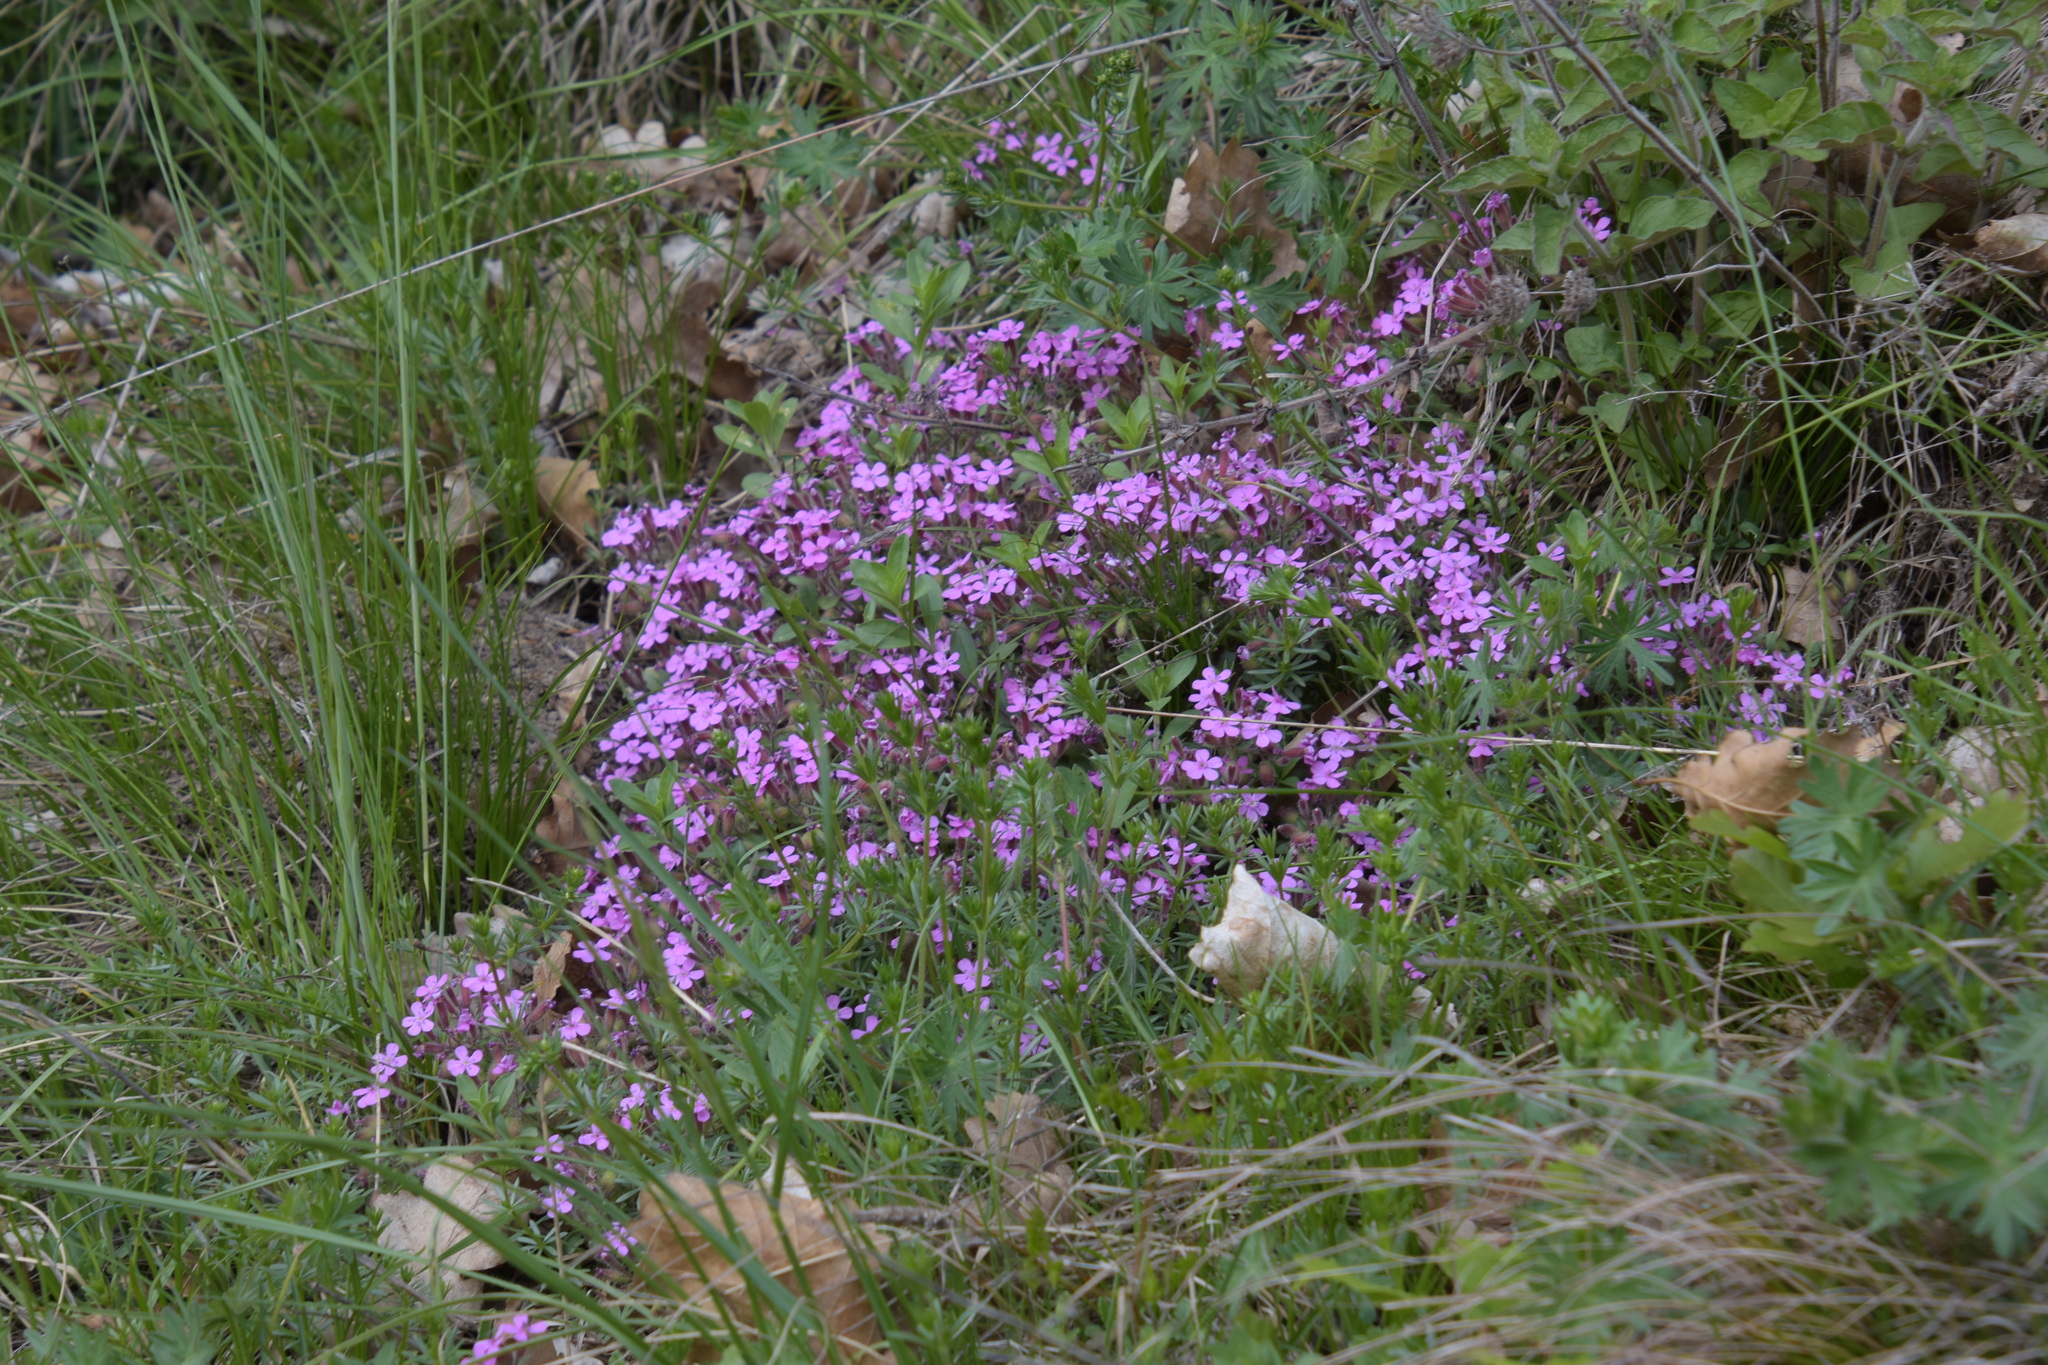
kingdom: Plantae
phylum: Tracheophyta
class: Magnoliopsida
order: Caryophyllales
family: Caryophyllaceae
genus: Saponaria
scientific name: Saponaria ocymoides
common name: Rock soapwort
